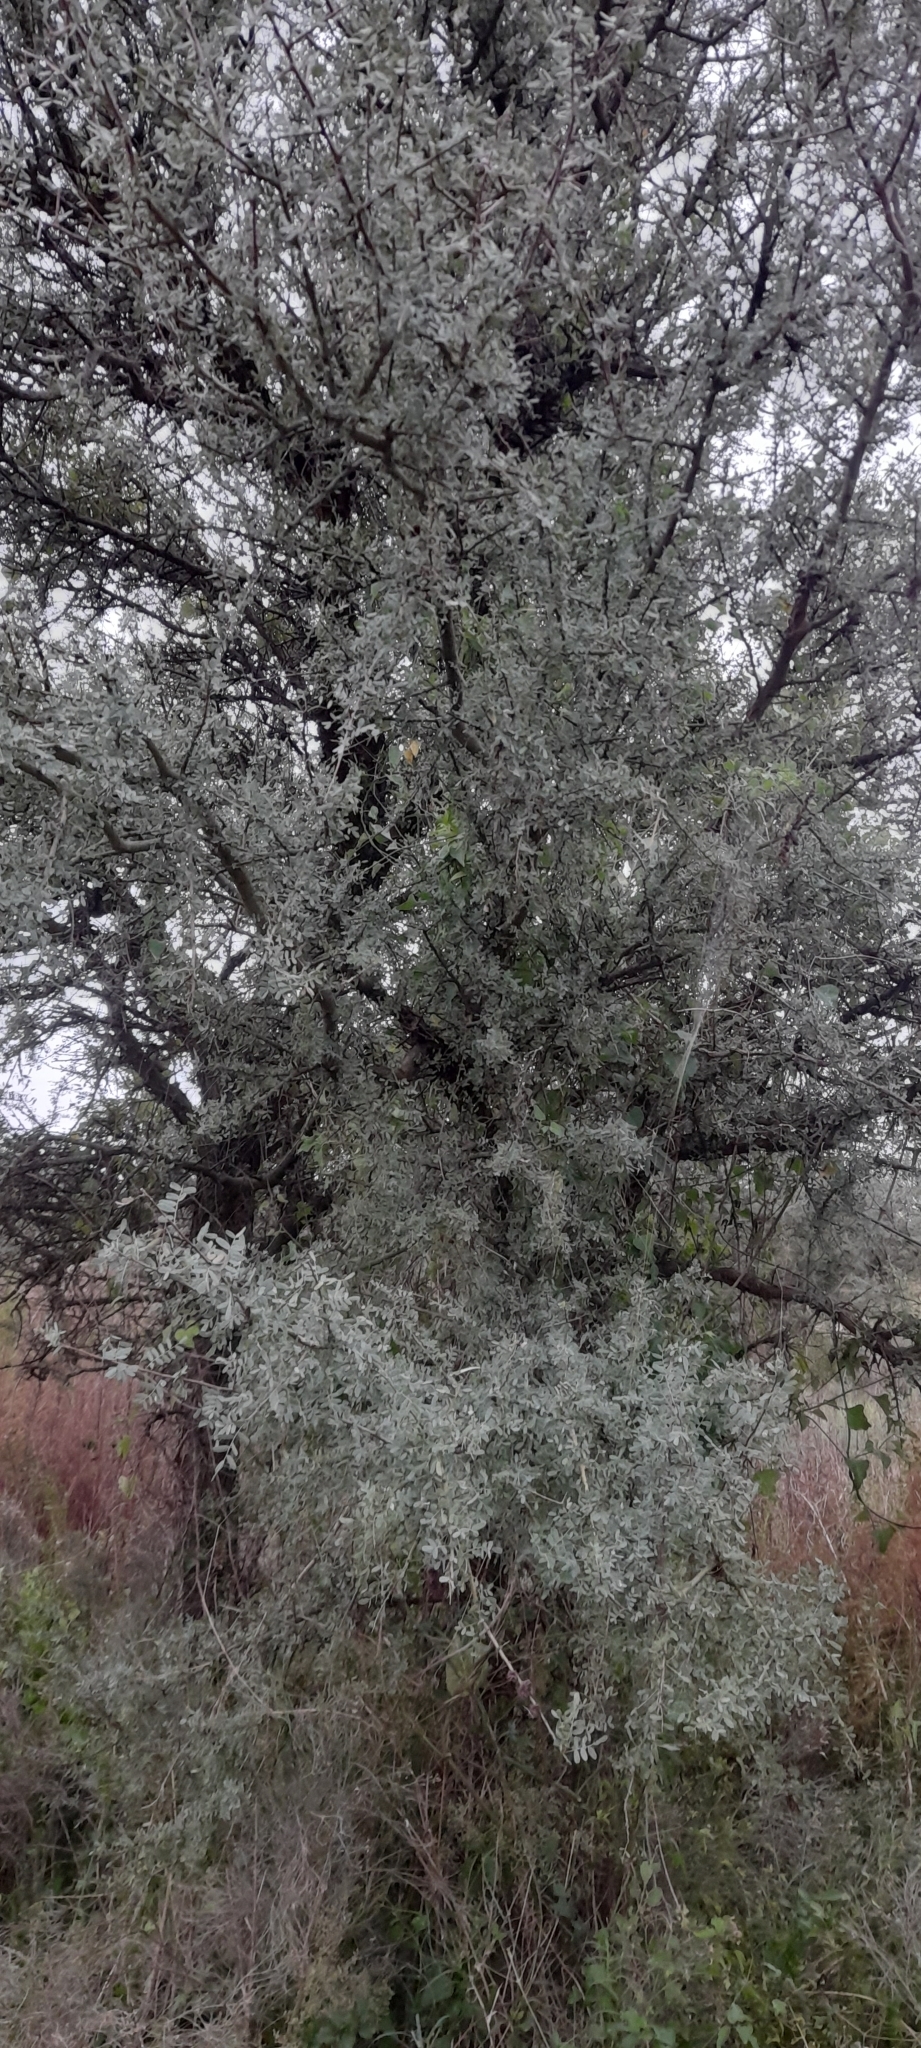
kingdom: Plantae
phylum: Tracheophyta
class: Magnoliopsida
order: Fabales
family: Fabaceae
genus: Geoffroea
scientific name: Geoffroea decorticans
